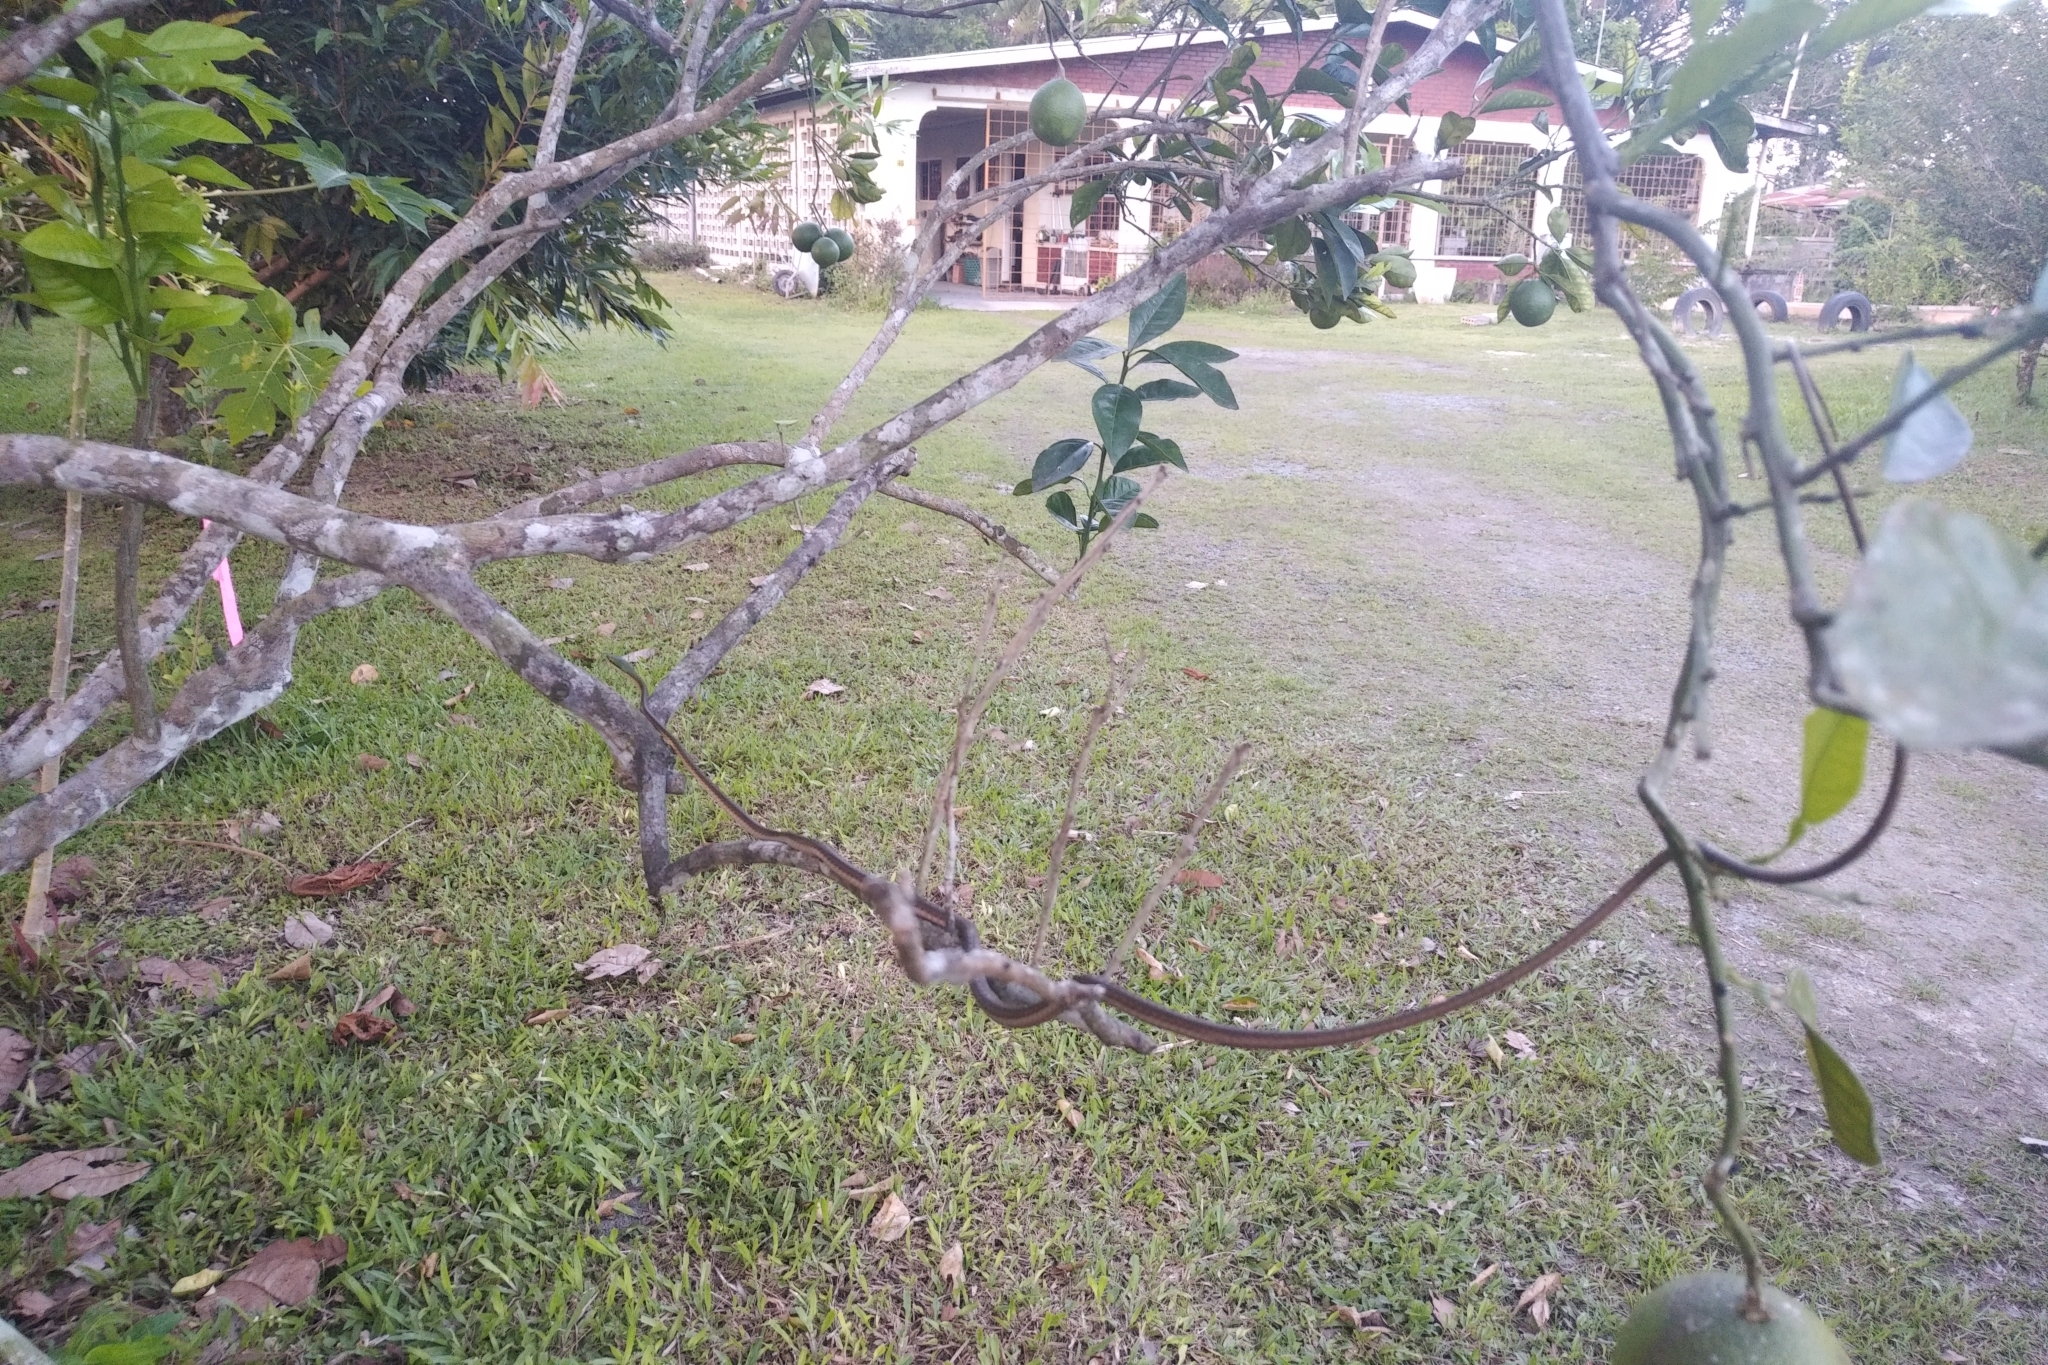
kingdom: Animalia
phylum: Chordata
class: Squamata
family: Colubridae
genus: Leptophis
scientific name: Leptophis ahaetulla
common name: Parrot snake
